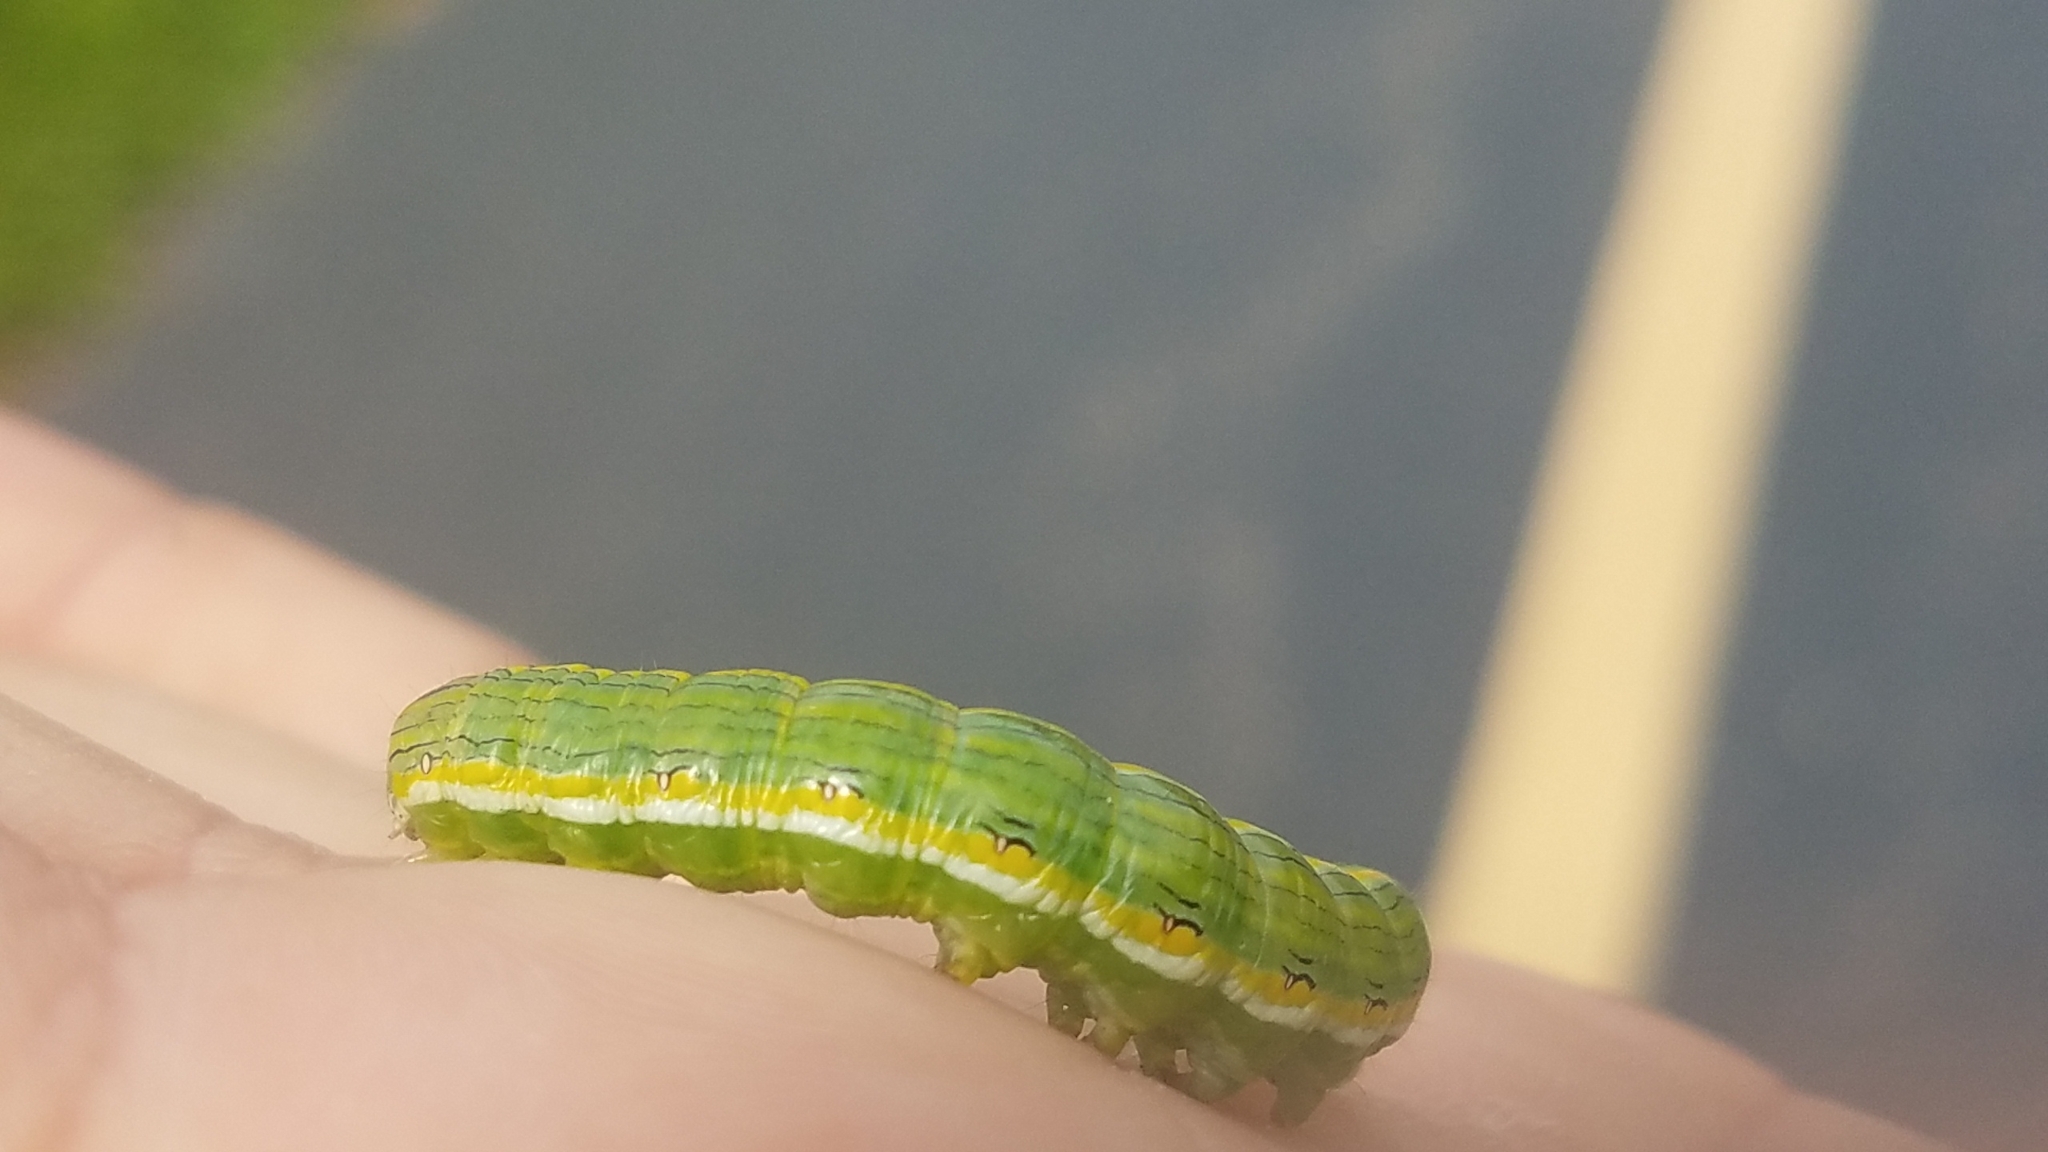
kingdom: Animalia
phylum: Arthropoda
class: Insecta
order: Lepidoptera
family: Noctuidae
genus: Cucullia
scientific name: Cucullia asteroides
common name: Asteroid moth
